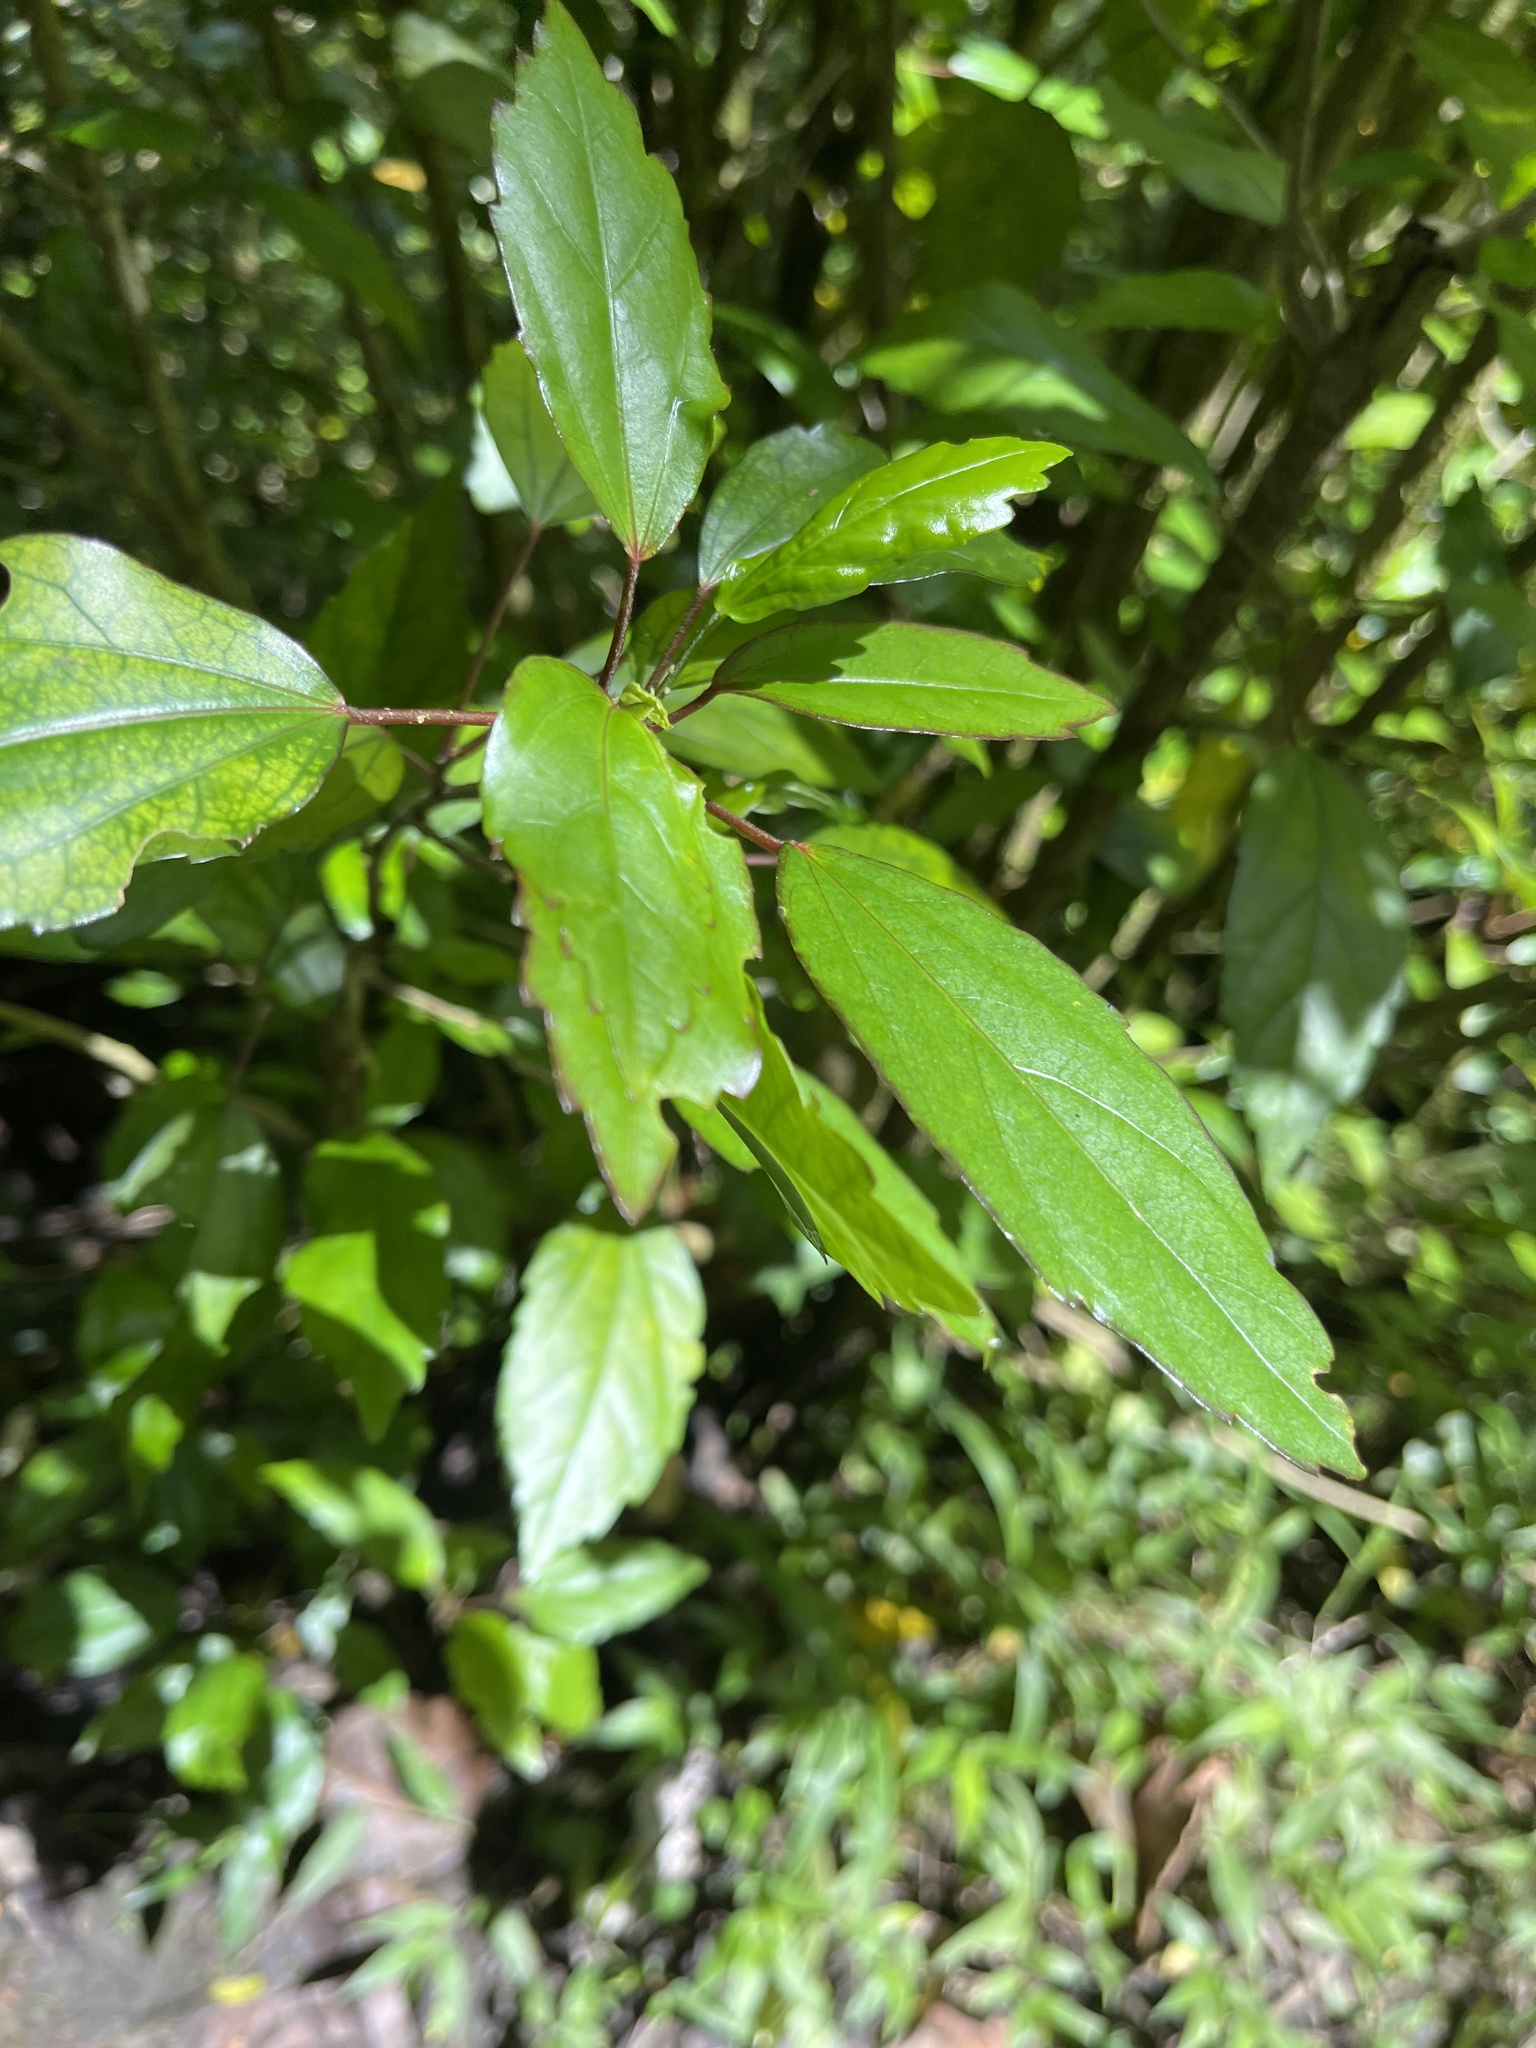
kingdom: Plantae
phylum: Tracheophyta
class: Magnoliopsida
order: Malvales
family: Malvaceae
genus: Hibiscus
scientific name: Hibiscus archeri
